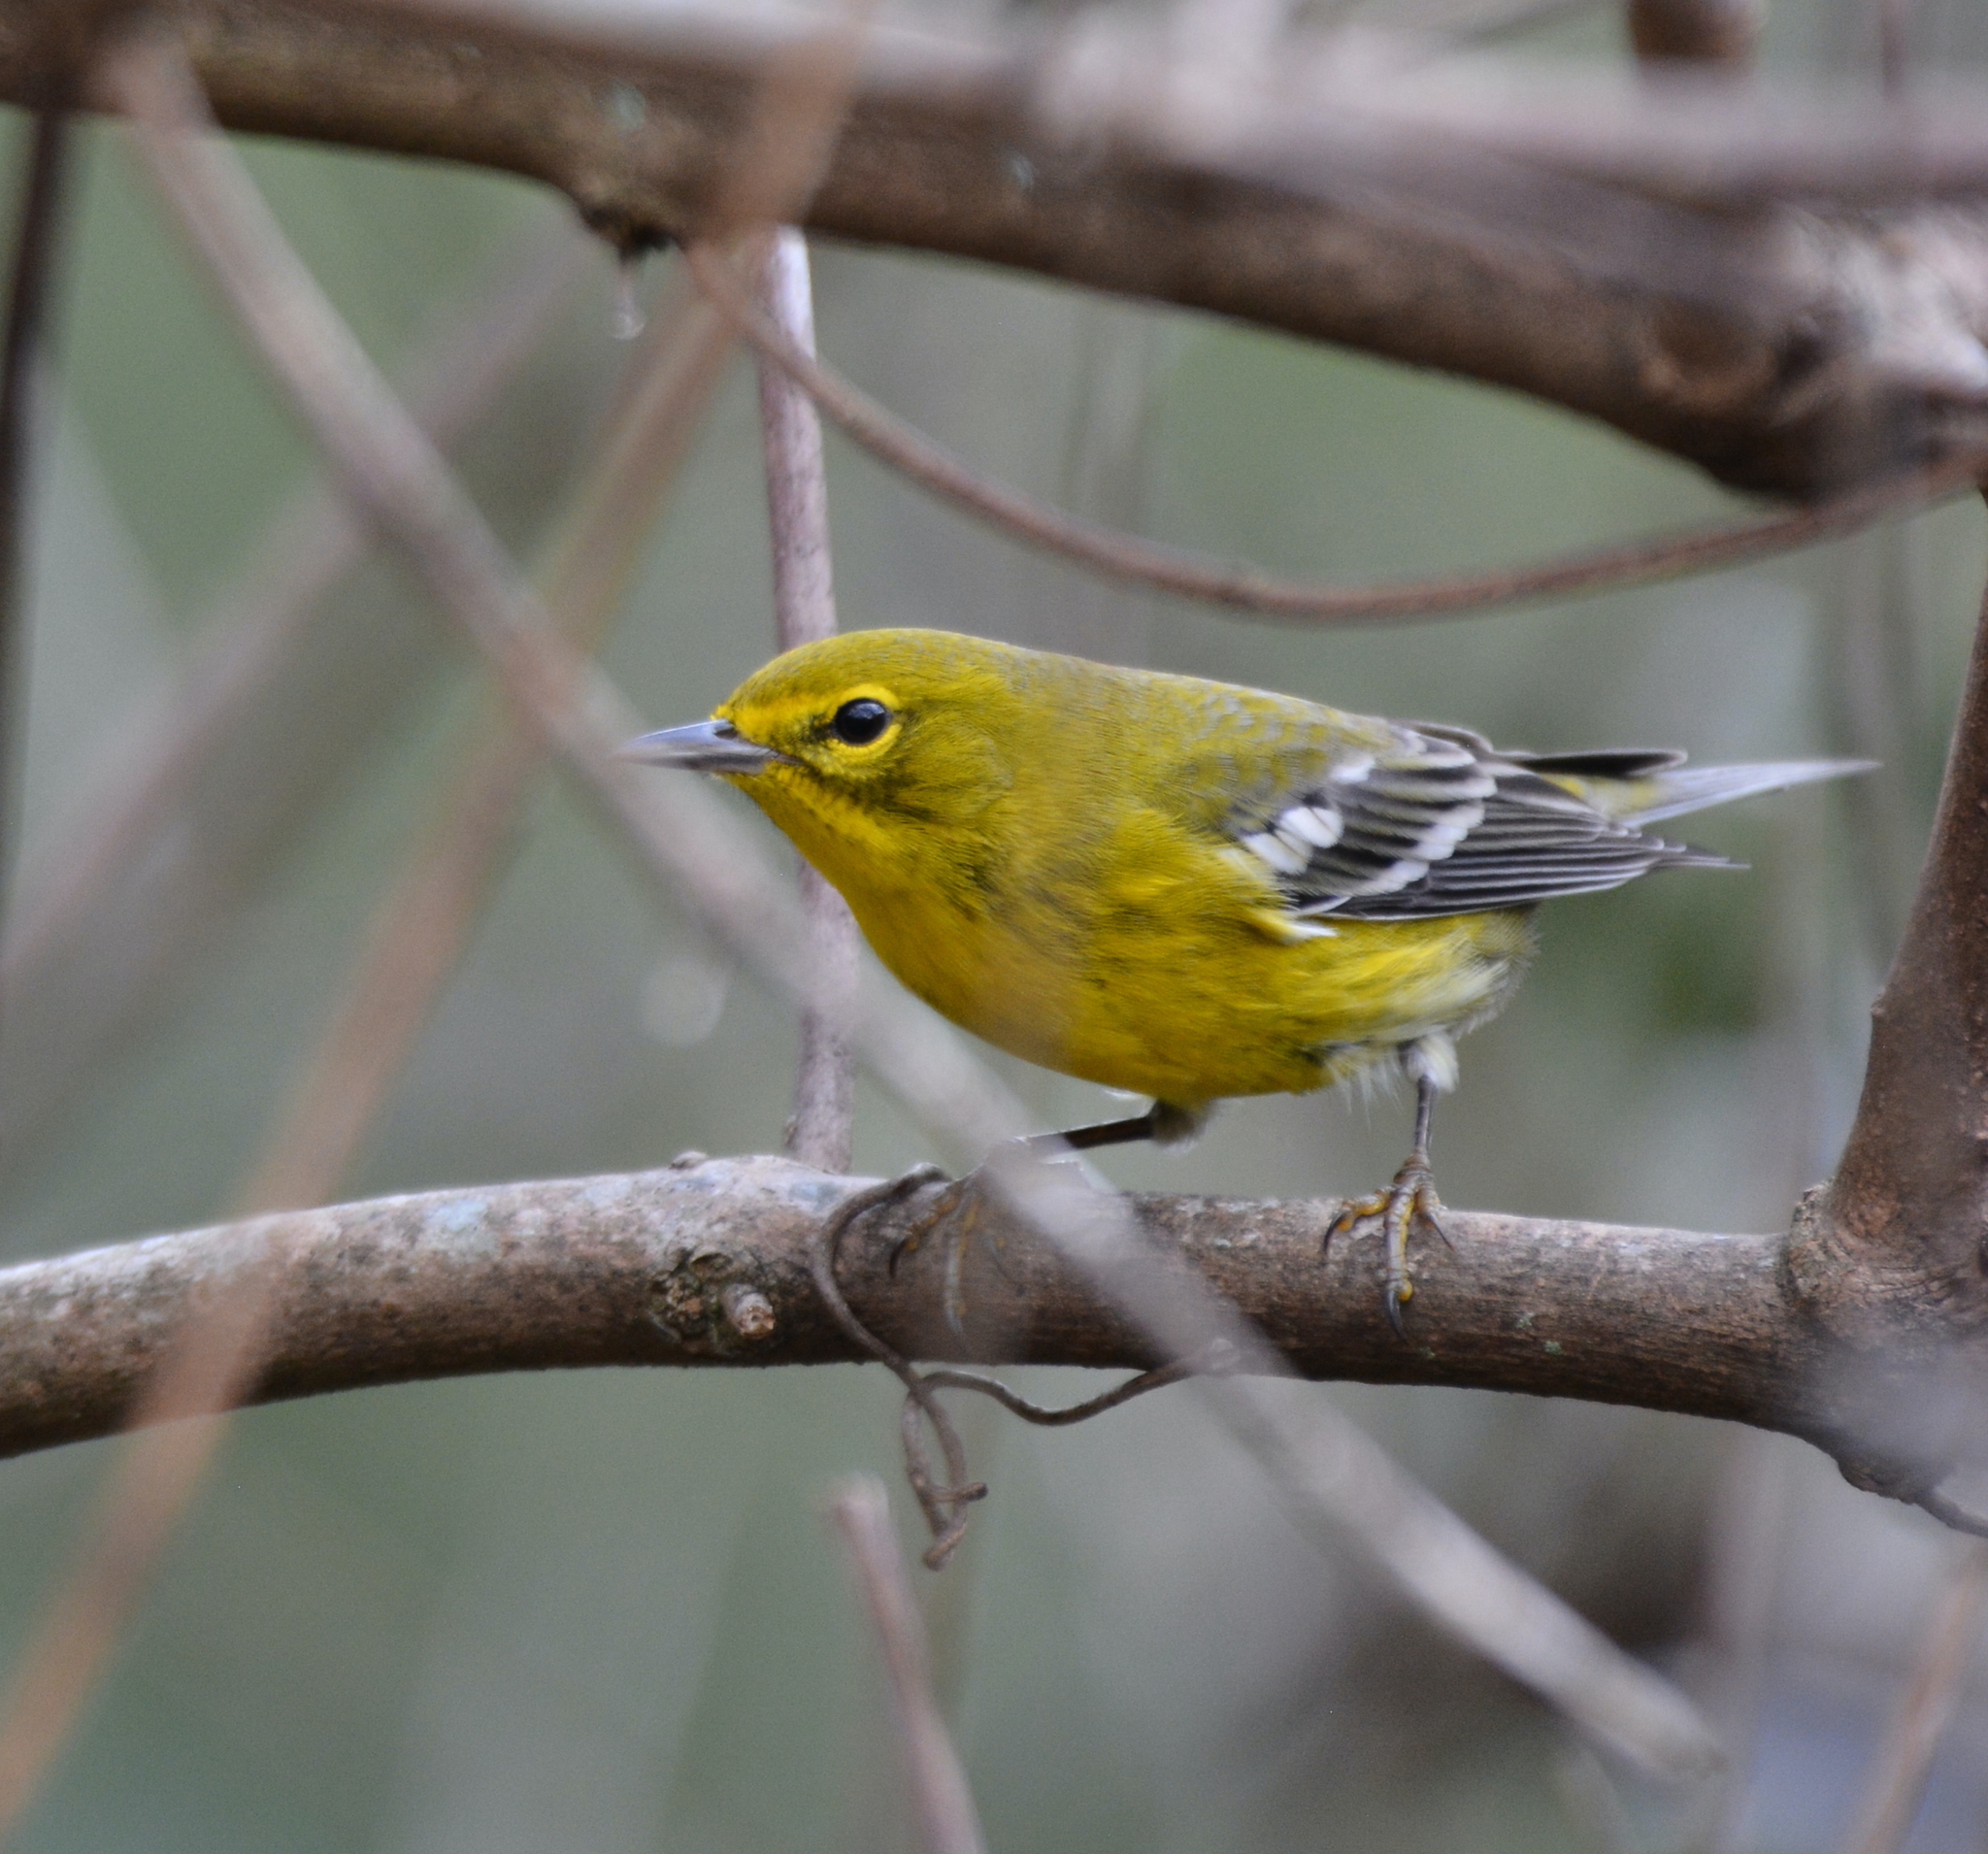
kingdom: Animalia
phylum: Chordata
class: Aves
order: Passeriformes
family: Parulidae
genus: Setophaga
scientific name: Setophaga pinus
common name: Pine warbler
